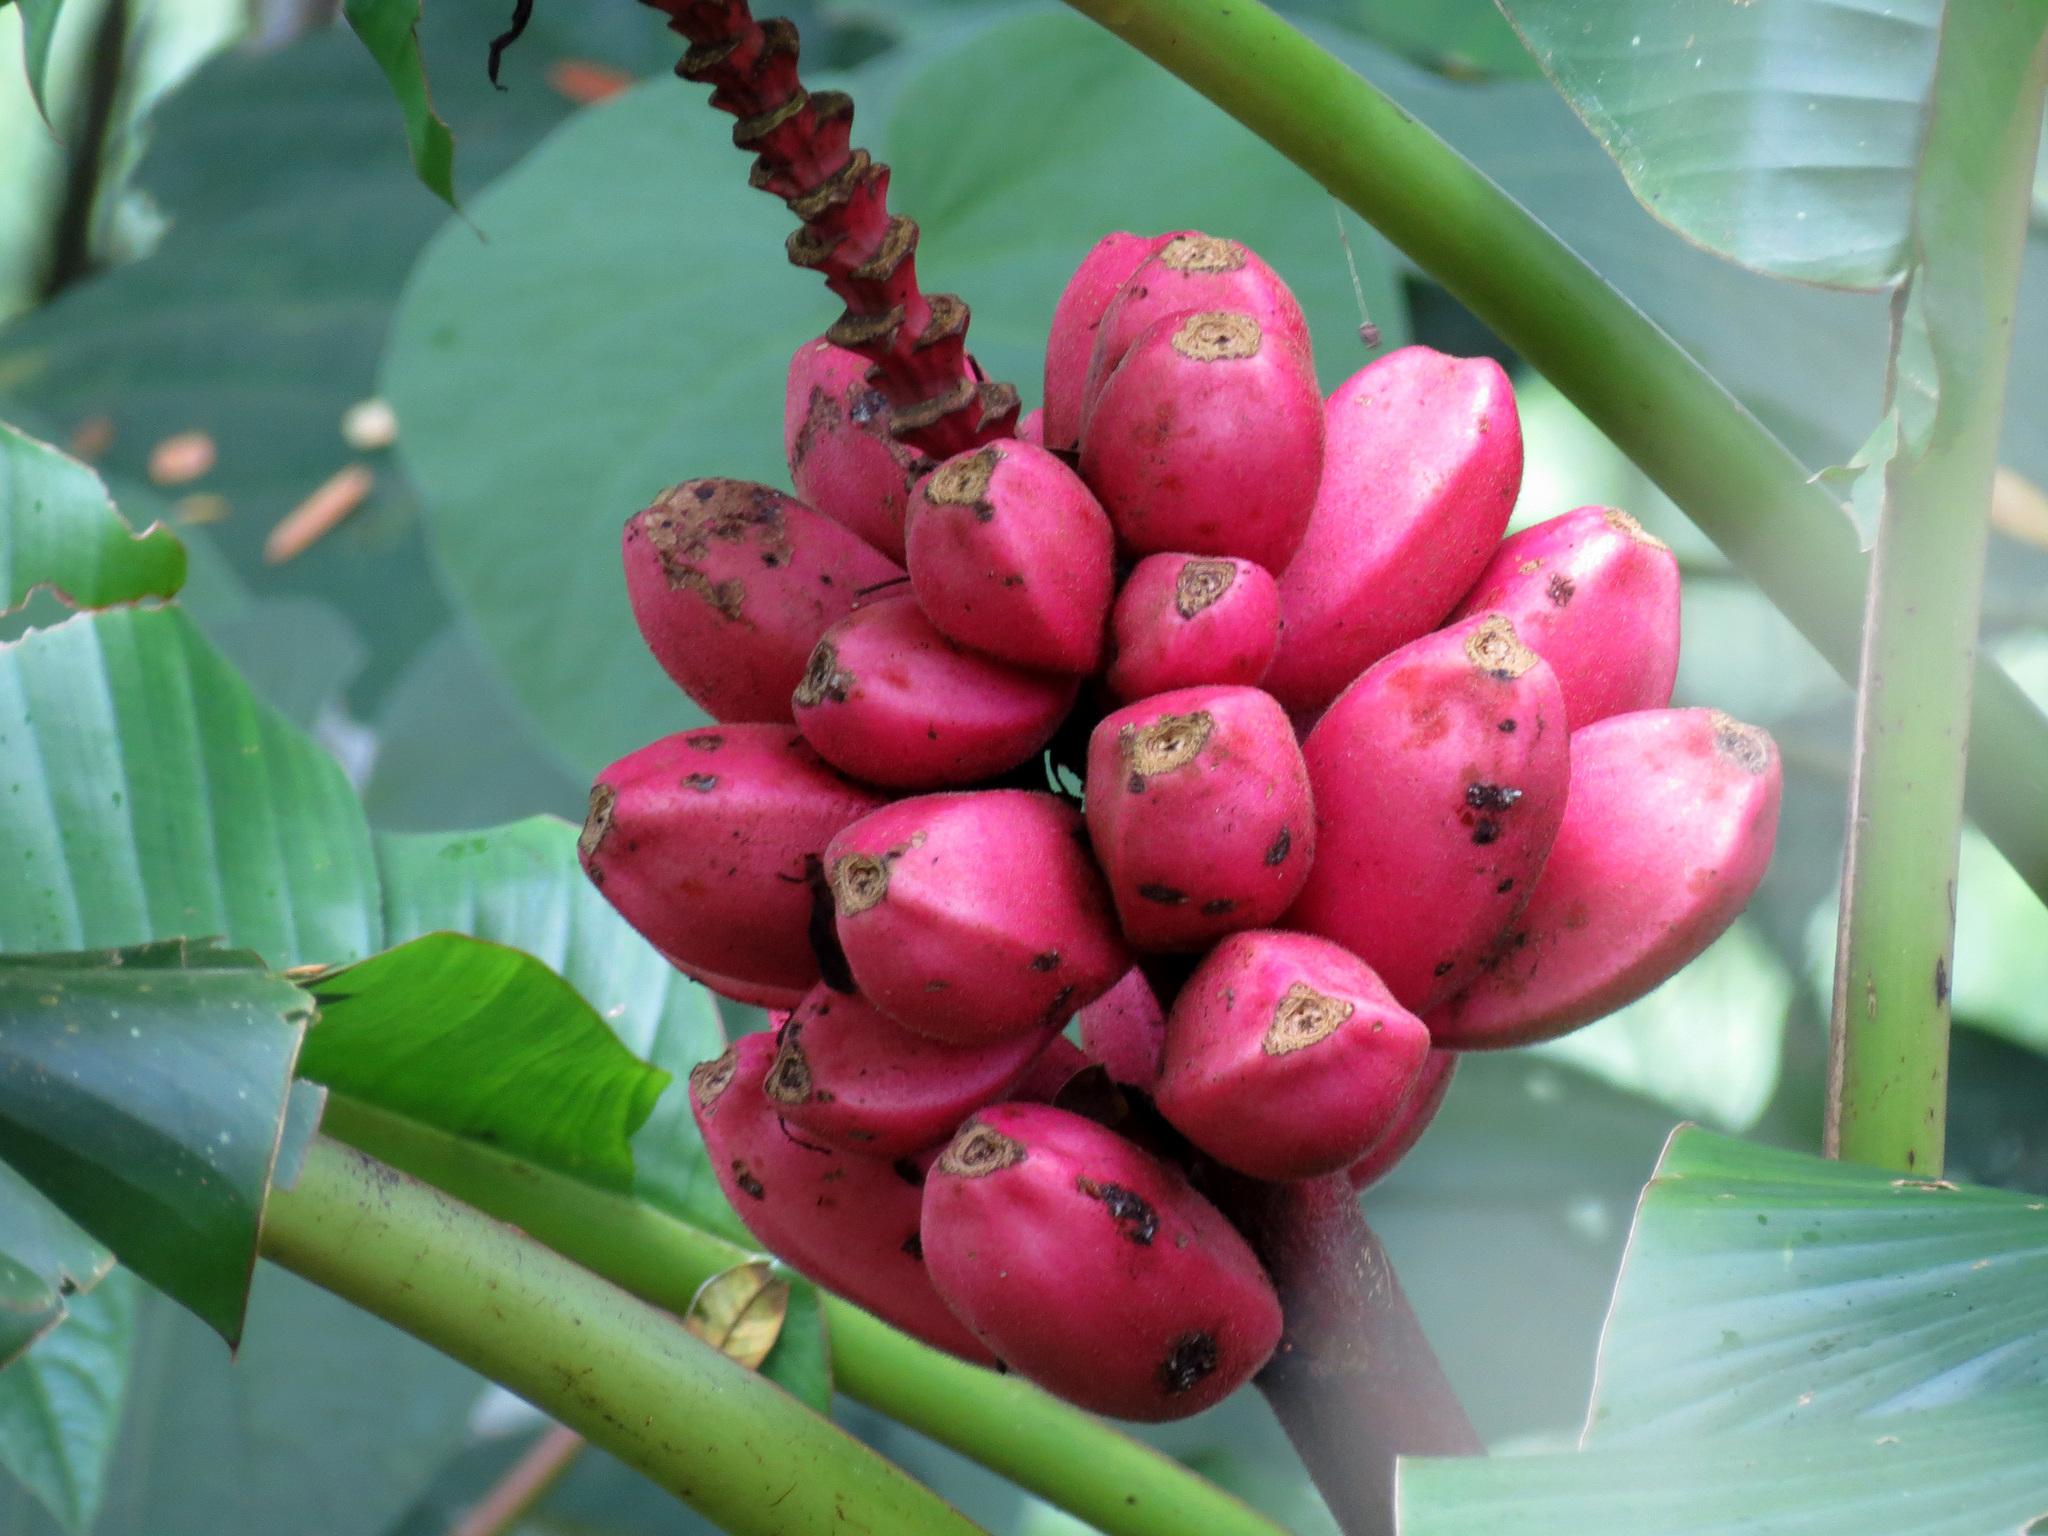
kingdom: Plantae
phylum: Tracheophyta
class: Liliopsida
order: Zingiberales
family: Musaceae
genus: Musa
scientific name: Musa velutina
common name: Pink velvet banana
